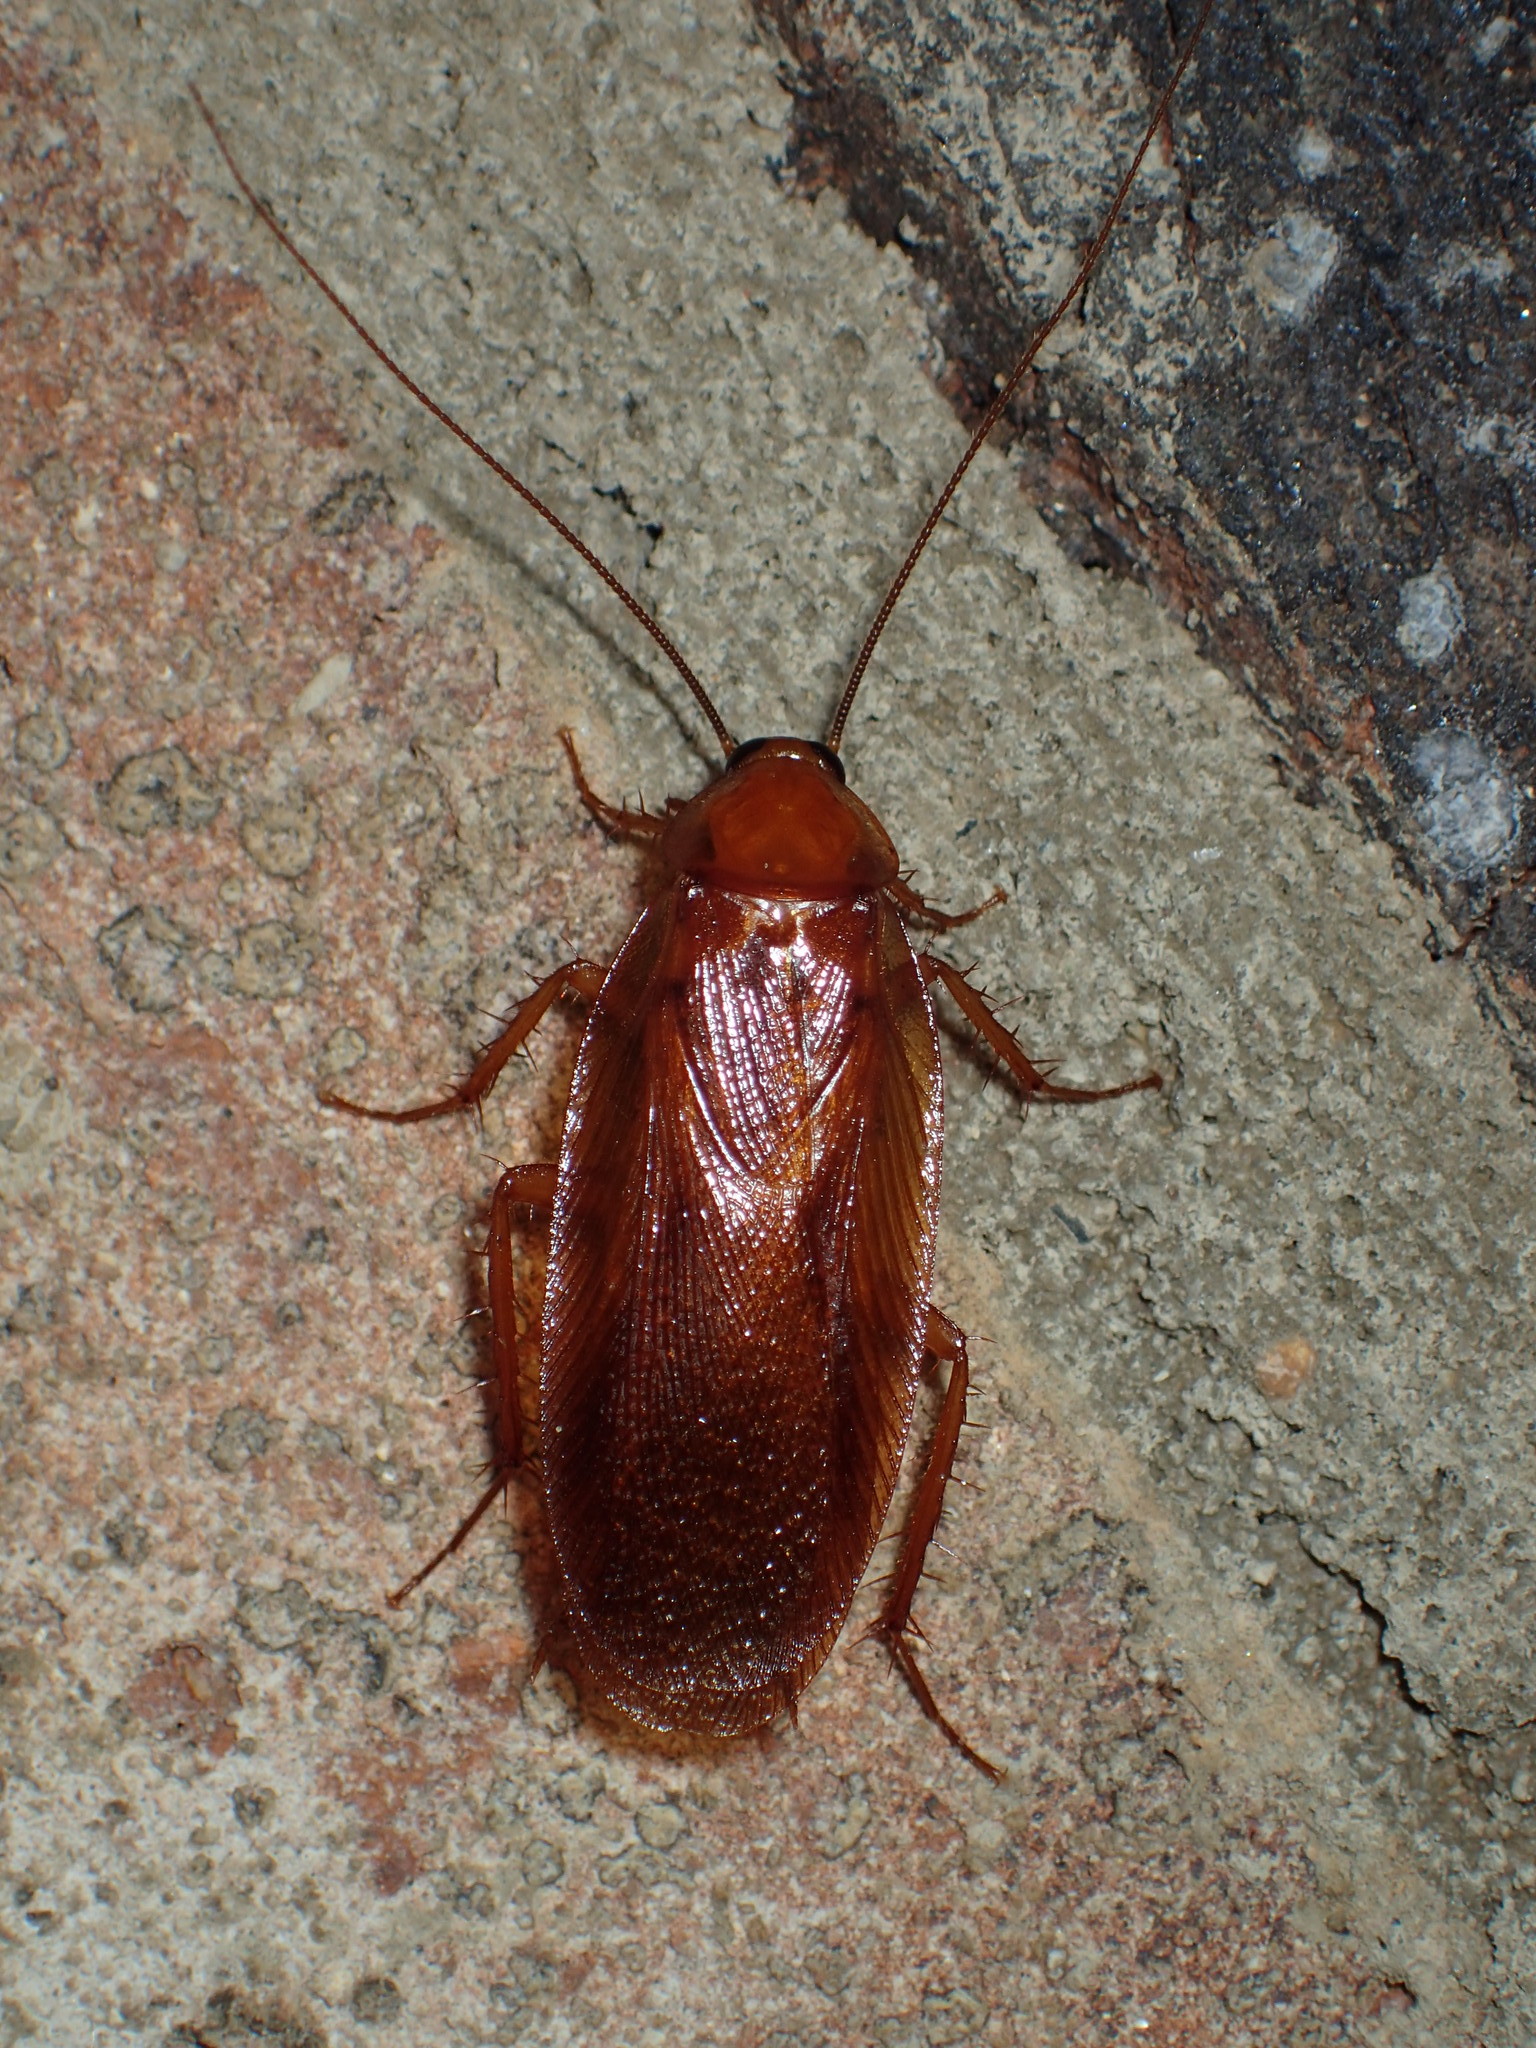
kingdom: Animalia
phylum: Arthropoda
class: Insecta
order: Blattodea
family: Ectobiidae
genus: Parcoblatta
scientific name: Parcoblatta uhleriana
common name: Uhler's wood cockroach
